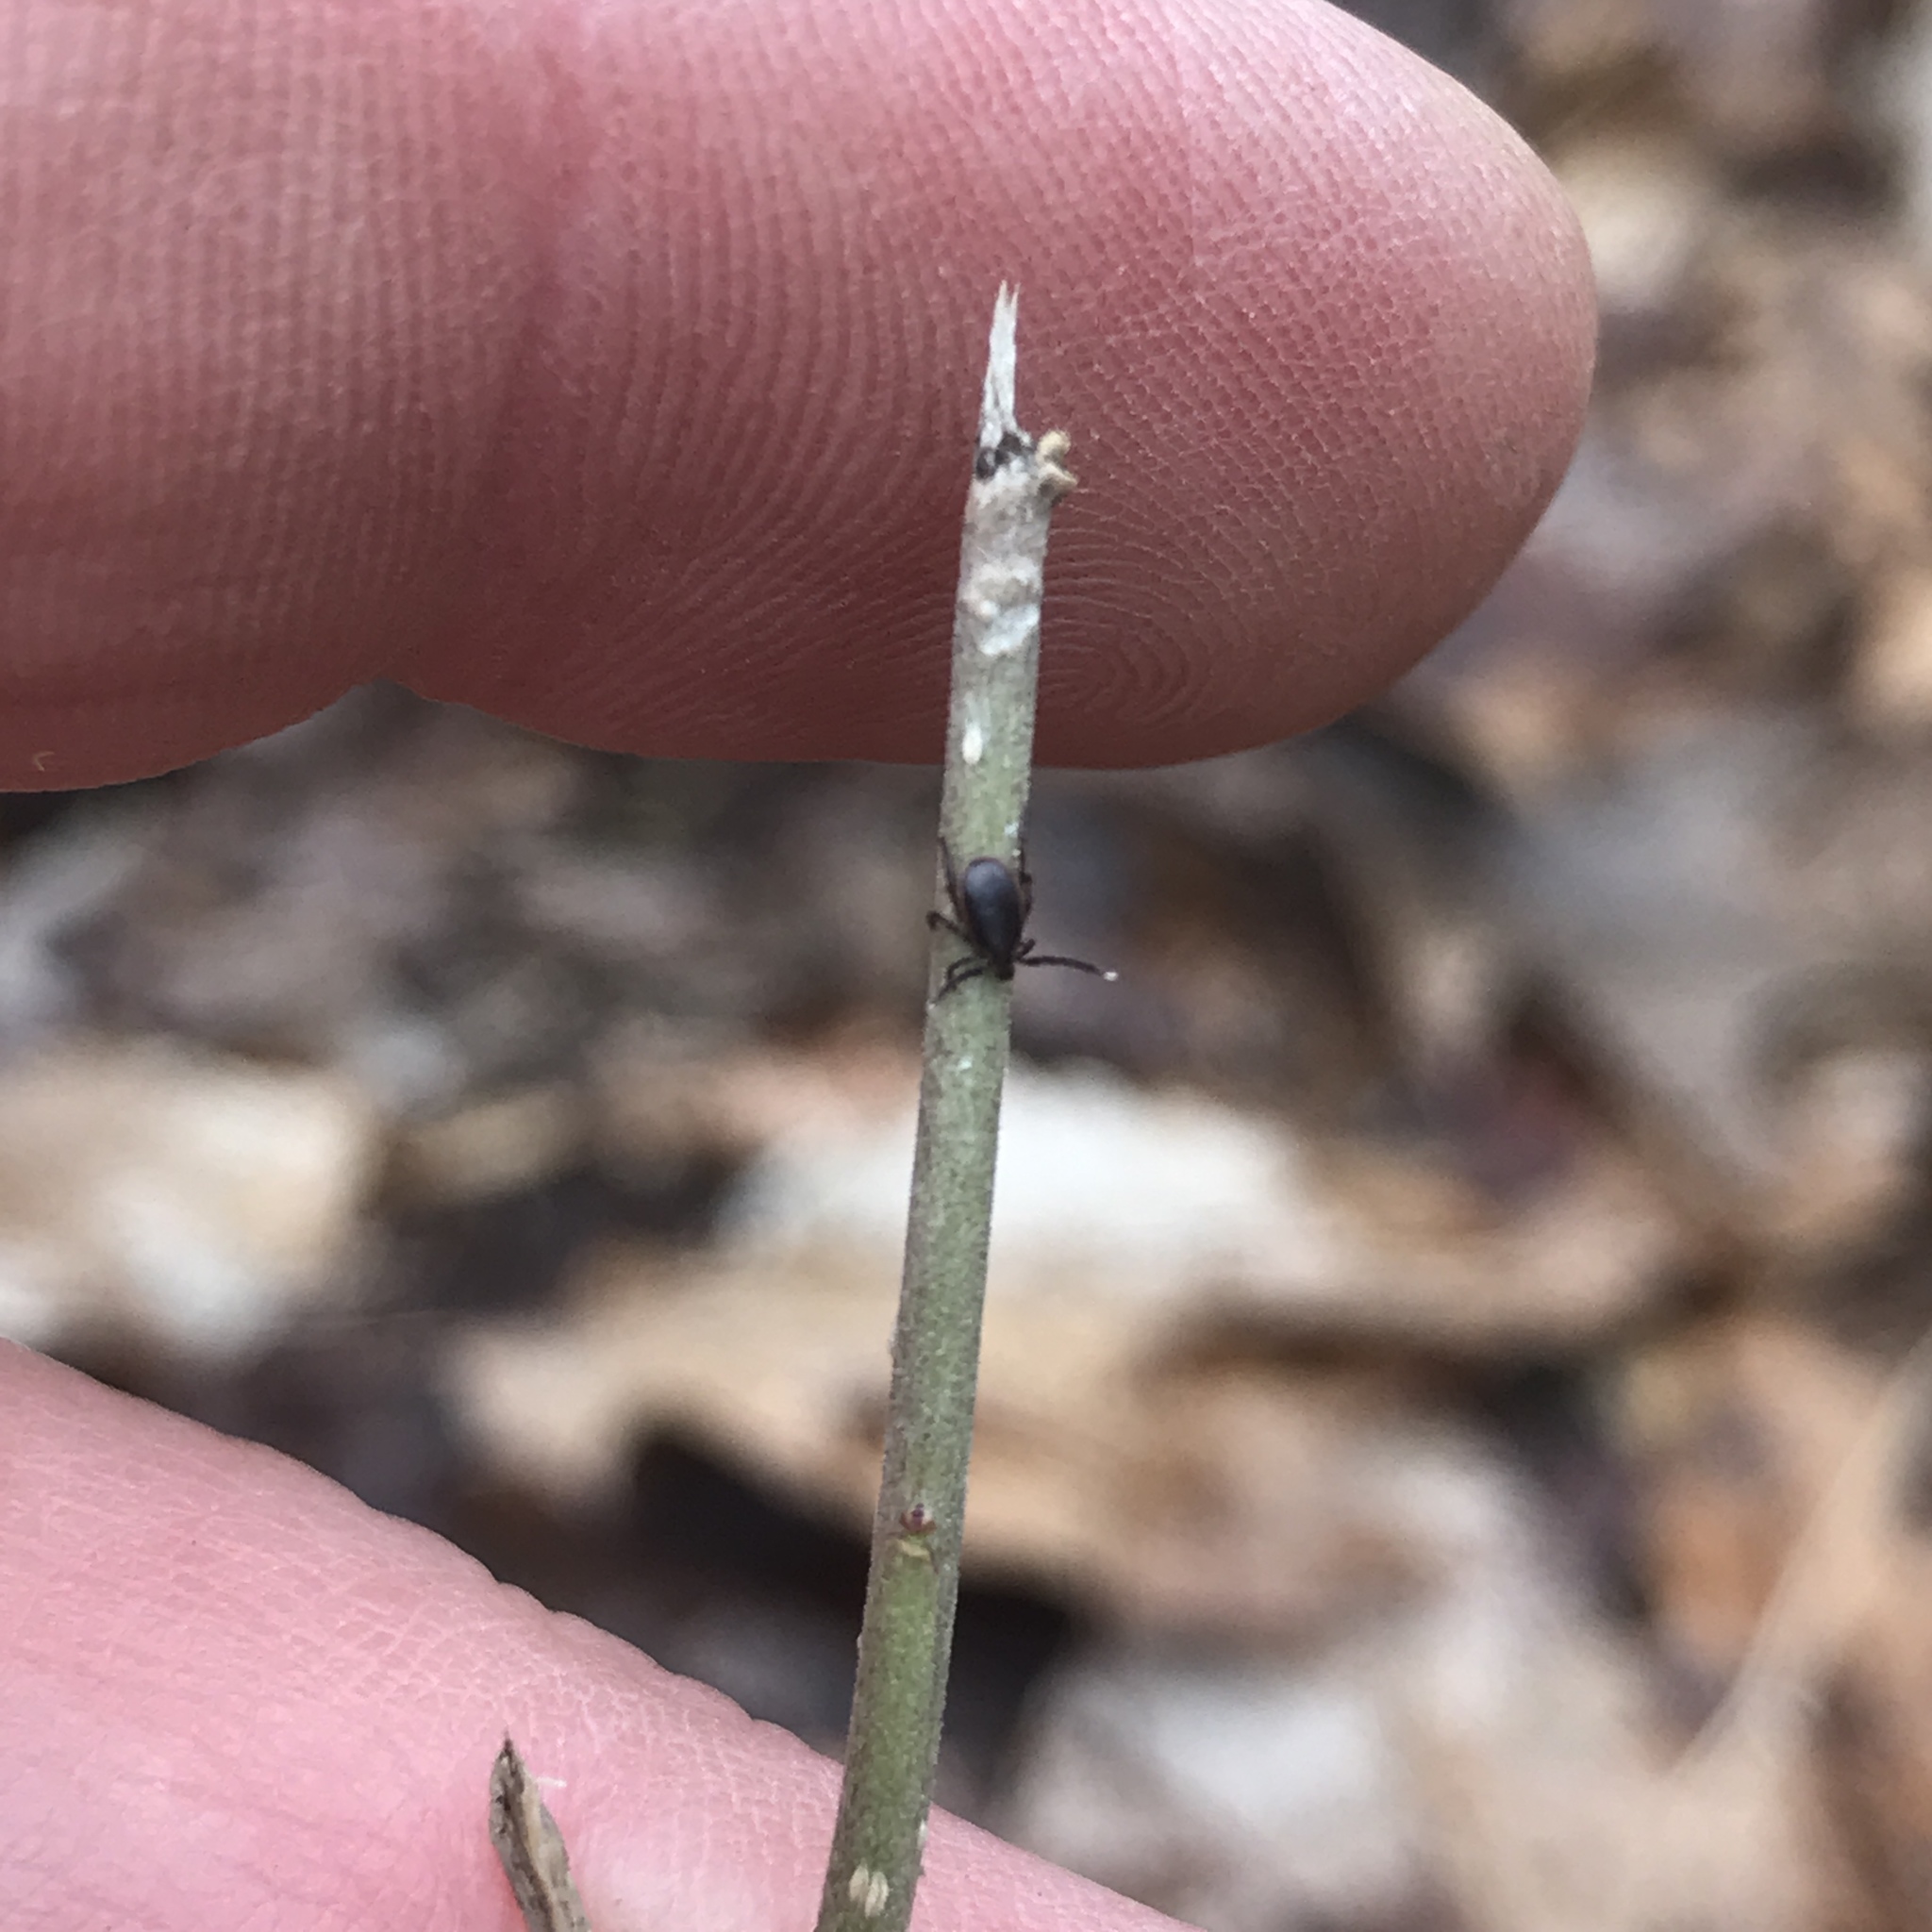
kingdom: Animalia
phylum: Arthropoda
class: Arachnida
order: Ixodida
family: Ixodidae
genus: Ixodes
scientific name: Ixodes scapularis
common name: Black legged tick
